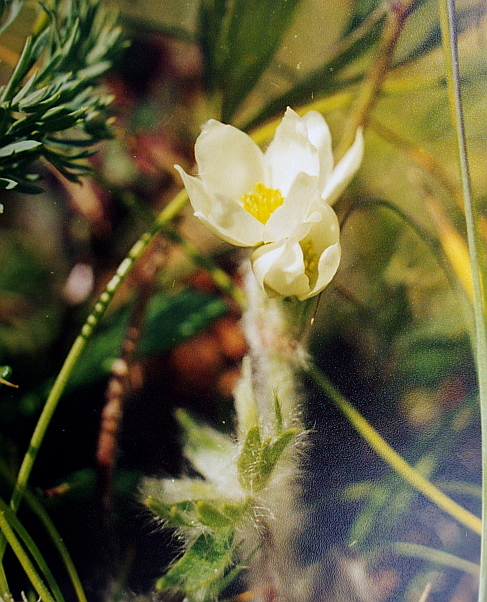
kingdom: Plantae
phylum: Tracheophyta
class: Magnoliopsida
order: Ranunculales
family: Ranunculaceae
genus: Anemonastrum
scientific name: Anemonastrum narcissiflorum
